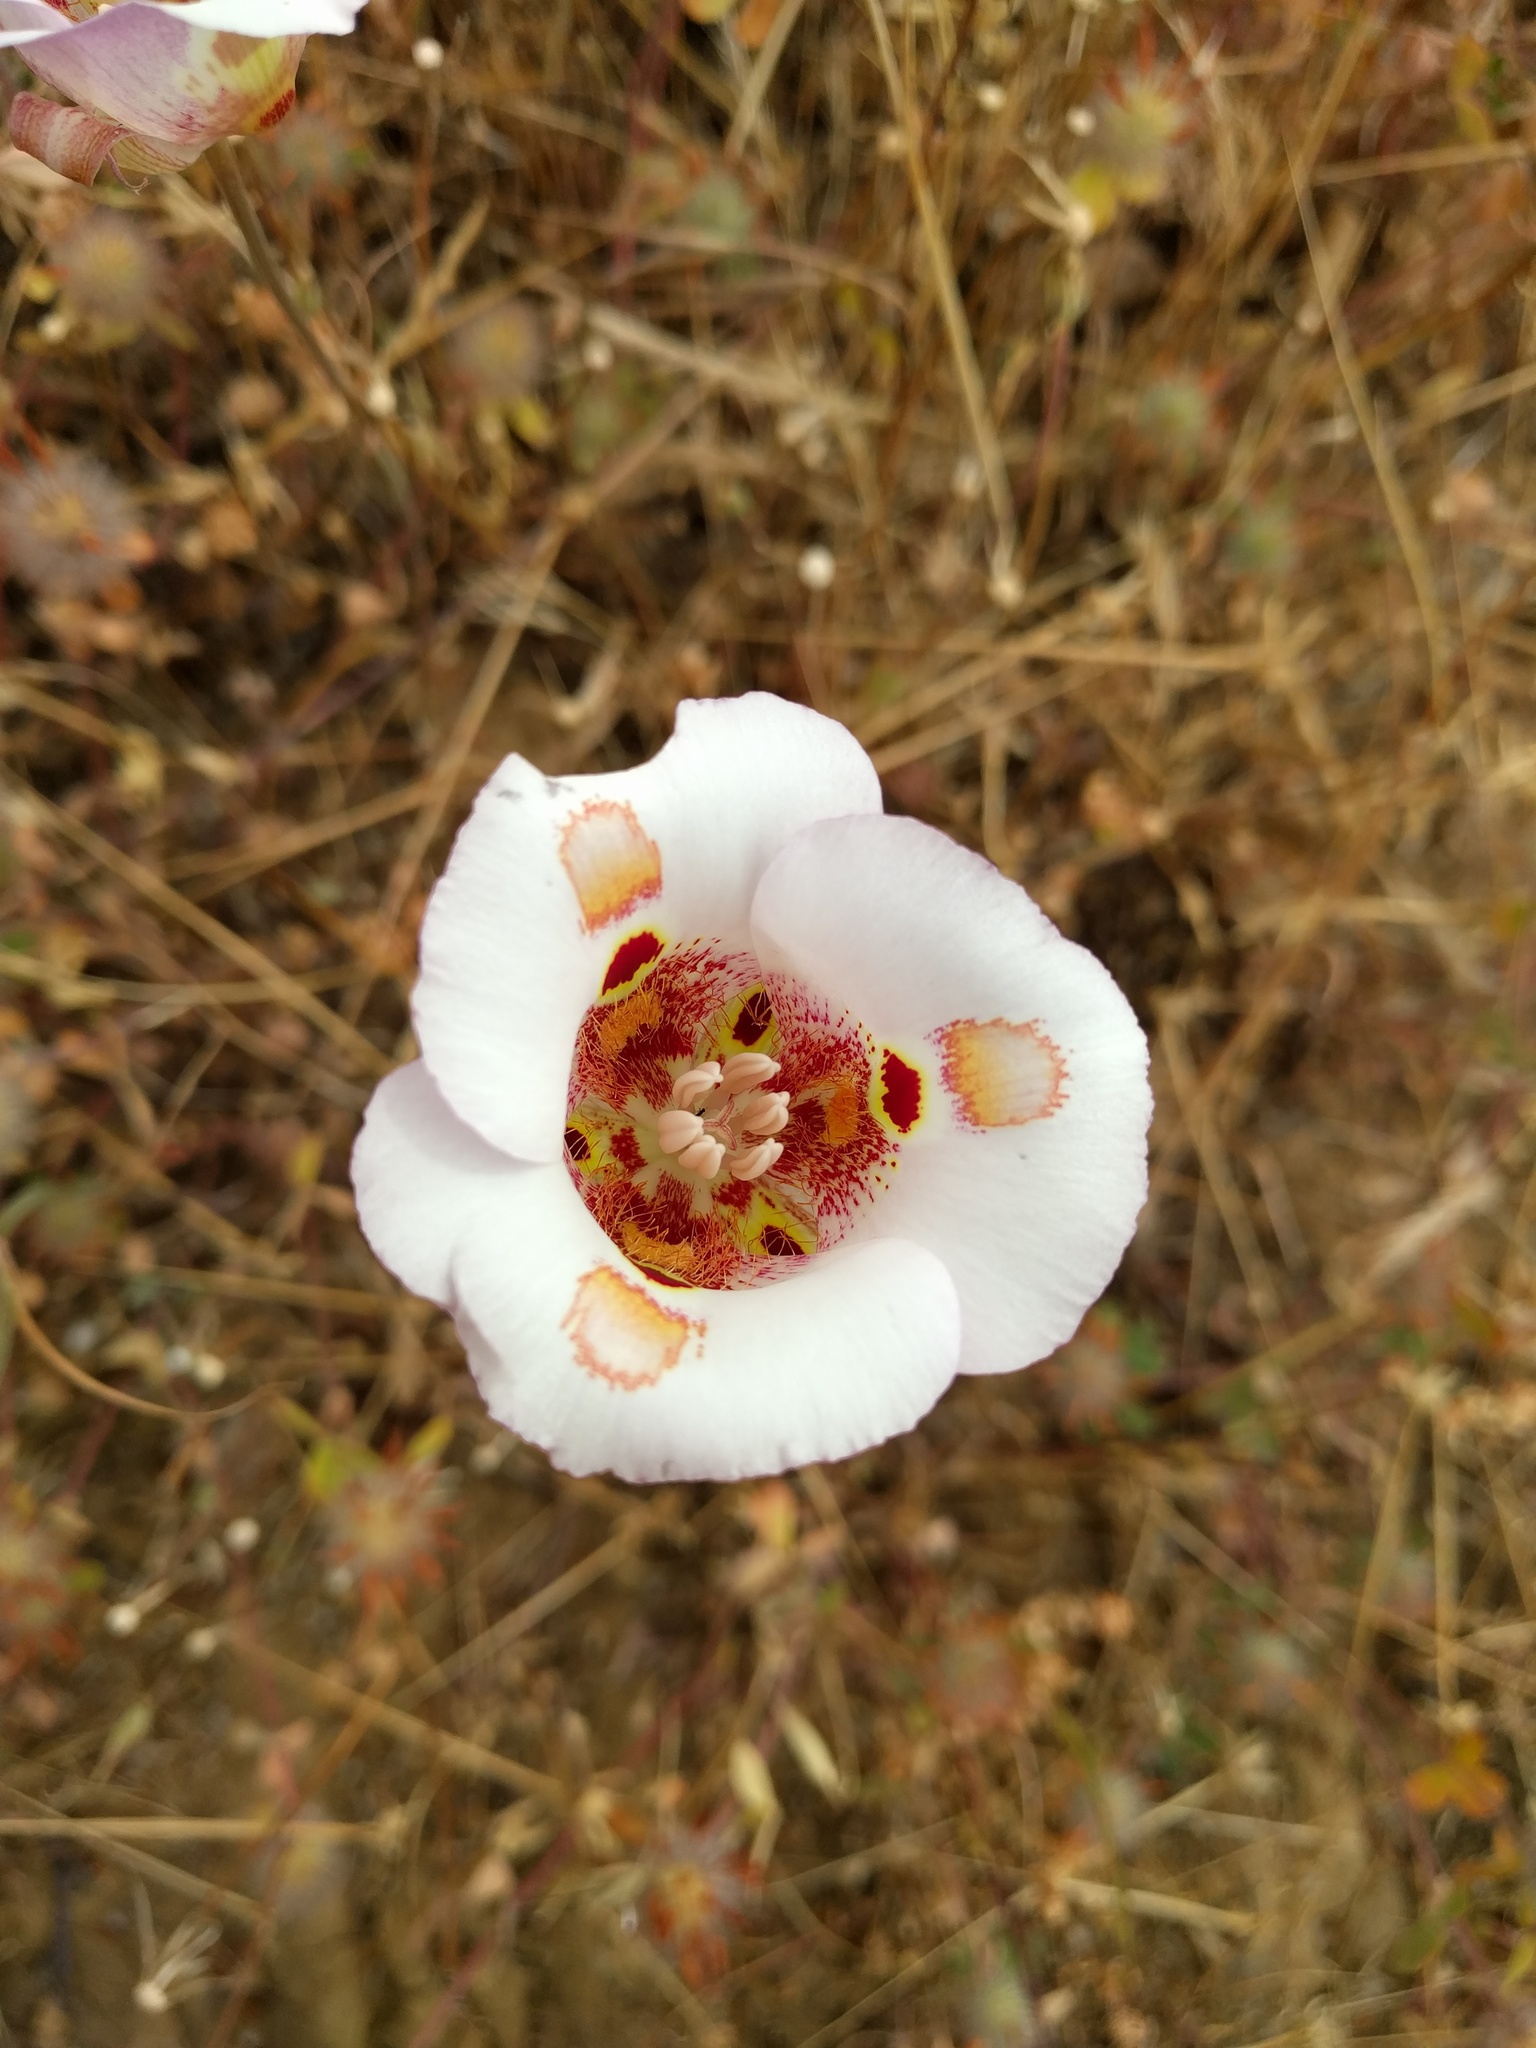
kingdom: Plantae
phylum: Tracheophyta
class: Liliopsida
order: Liliales
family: Liliaceae
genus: Calochortus
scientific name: Calochortus venustus
